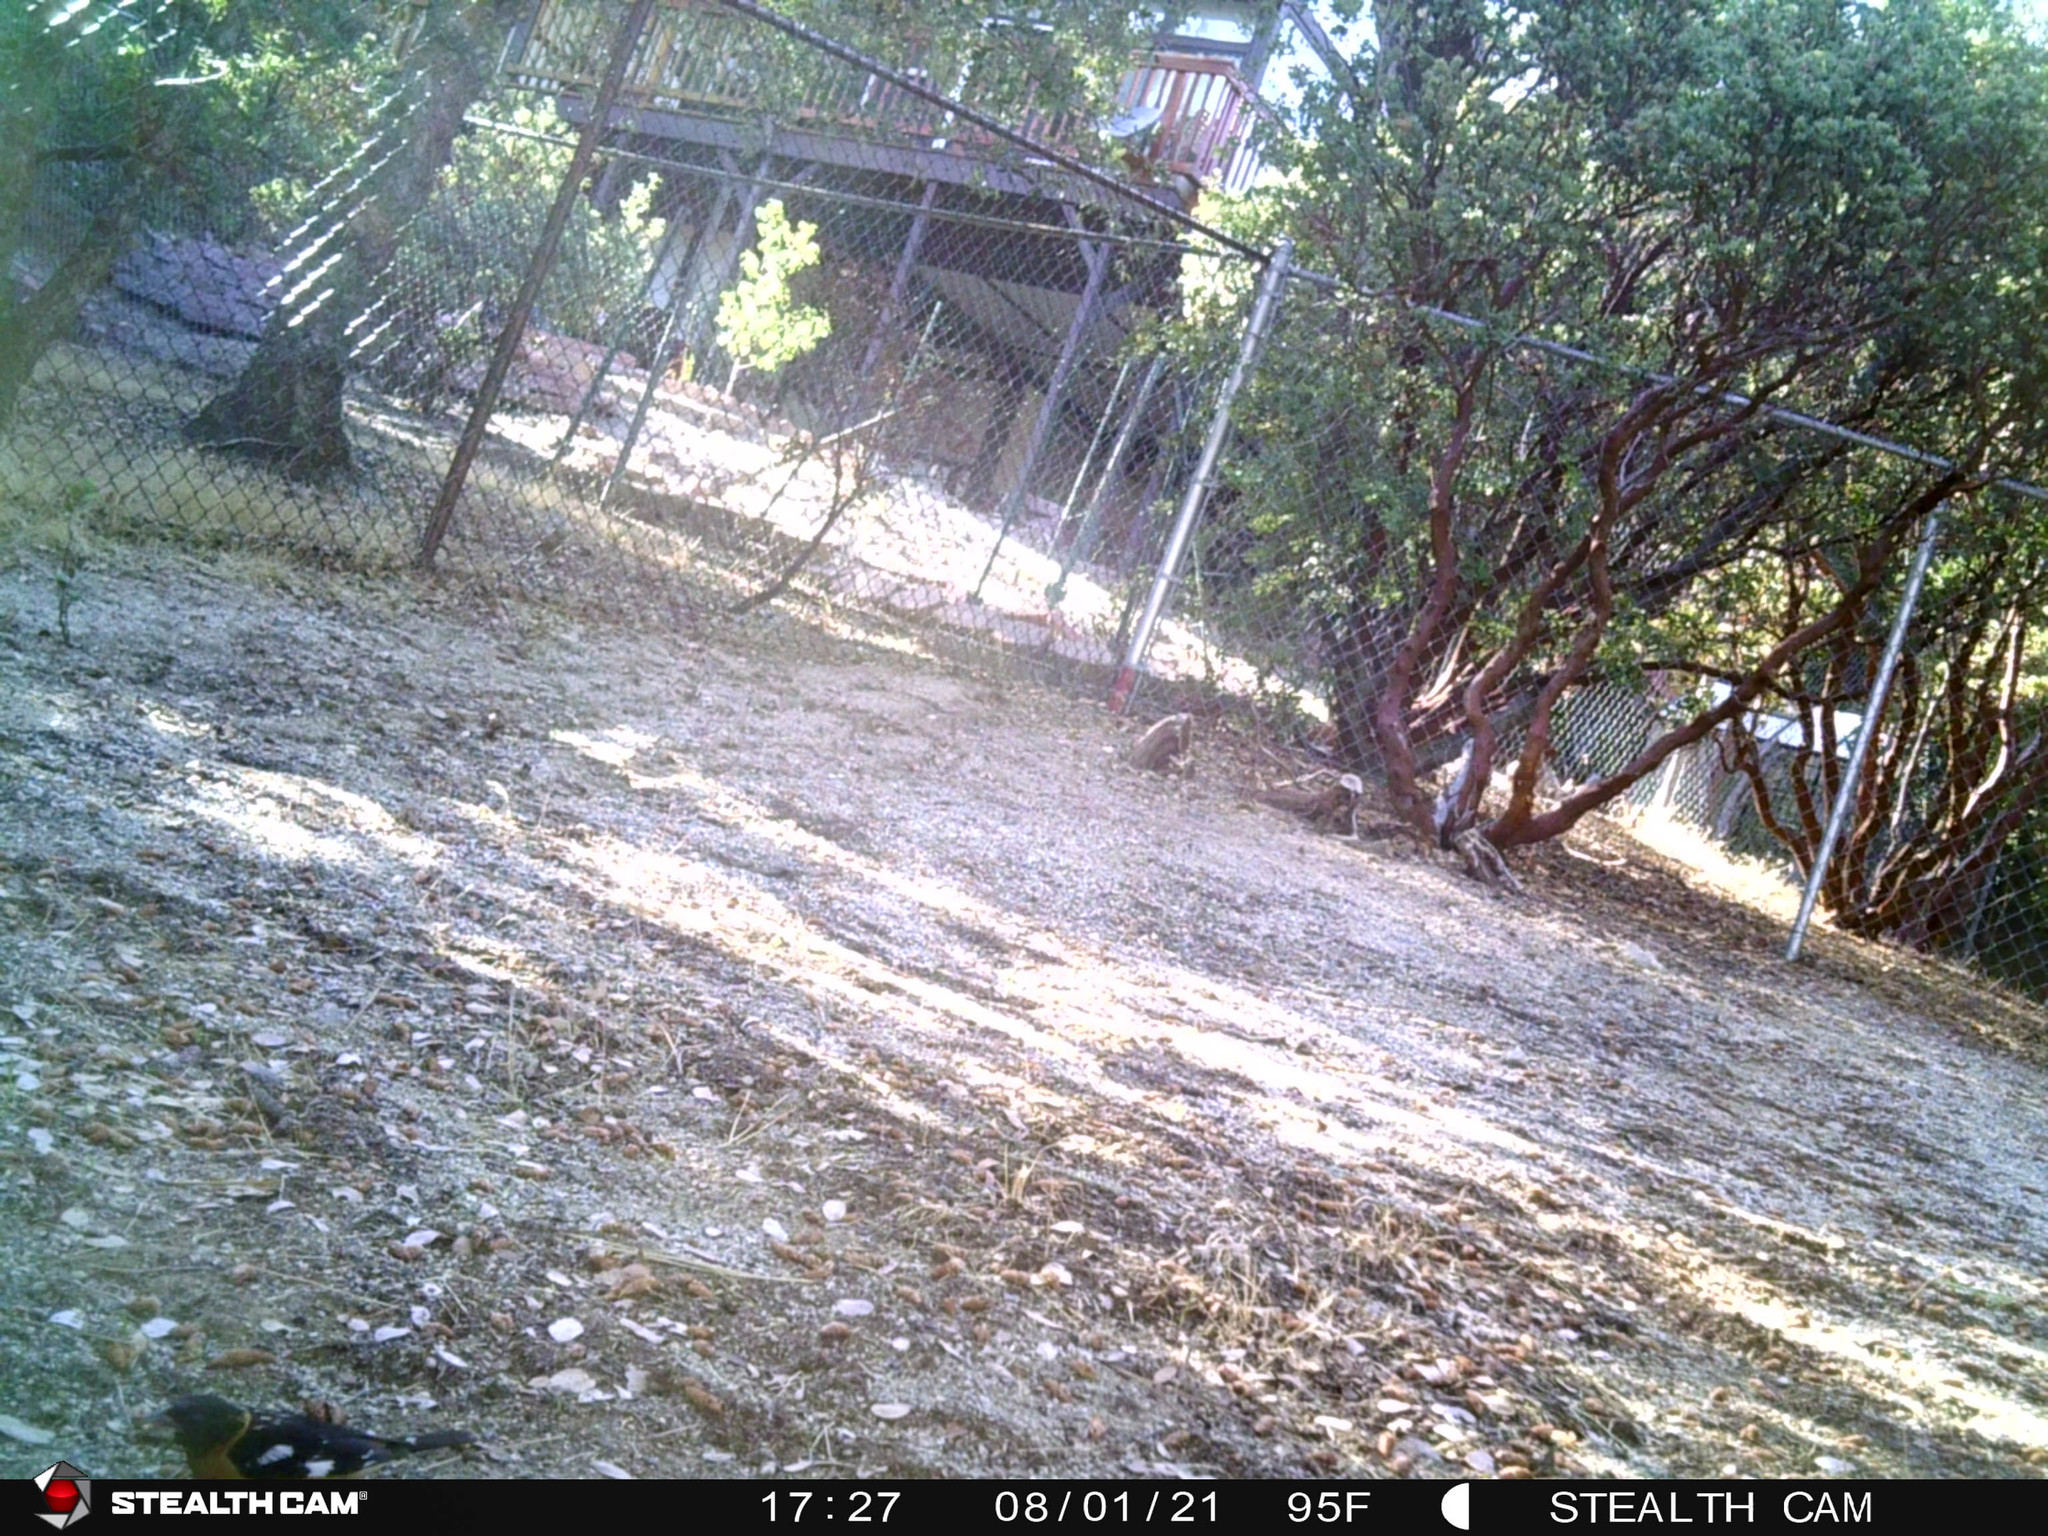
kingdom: Animalia
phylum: Chordata
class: Aves
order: Passeriformes
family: Cardinalidae
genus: Pheucticus
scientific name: Pheucticus melanocephalus
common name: Black-headed grosbeak
